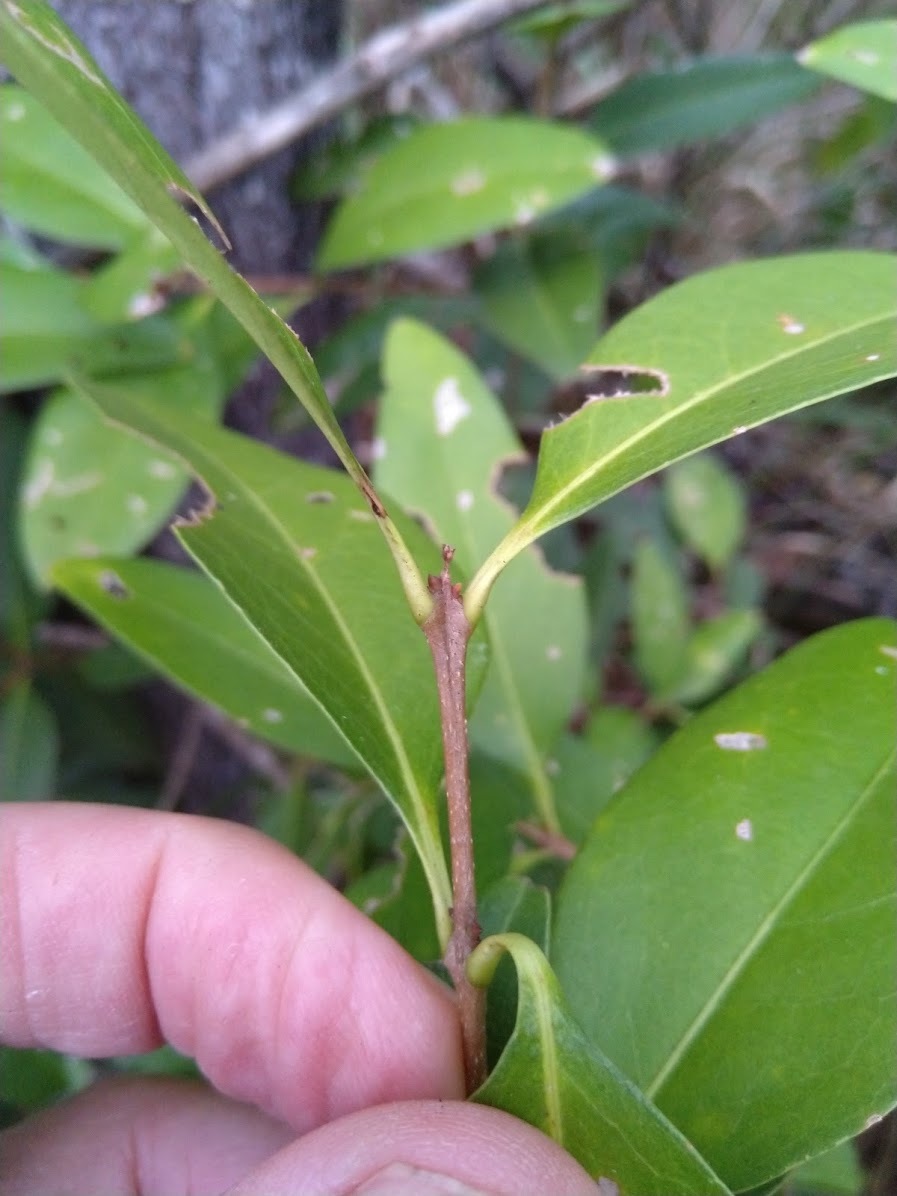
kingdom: Plantae
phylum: Tracheophyta
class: Magnoliopsida
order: Lamiales
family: Oleaceae
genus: Notelaea
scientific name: Notelaea punctata
